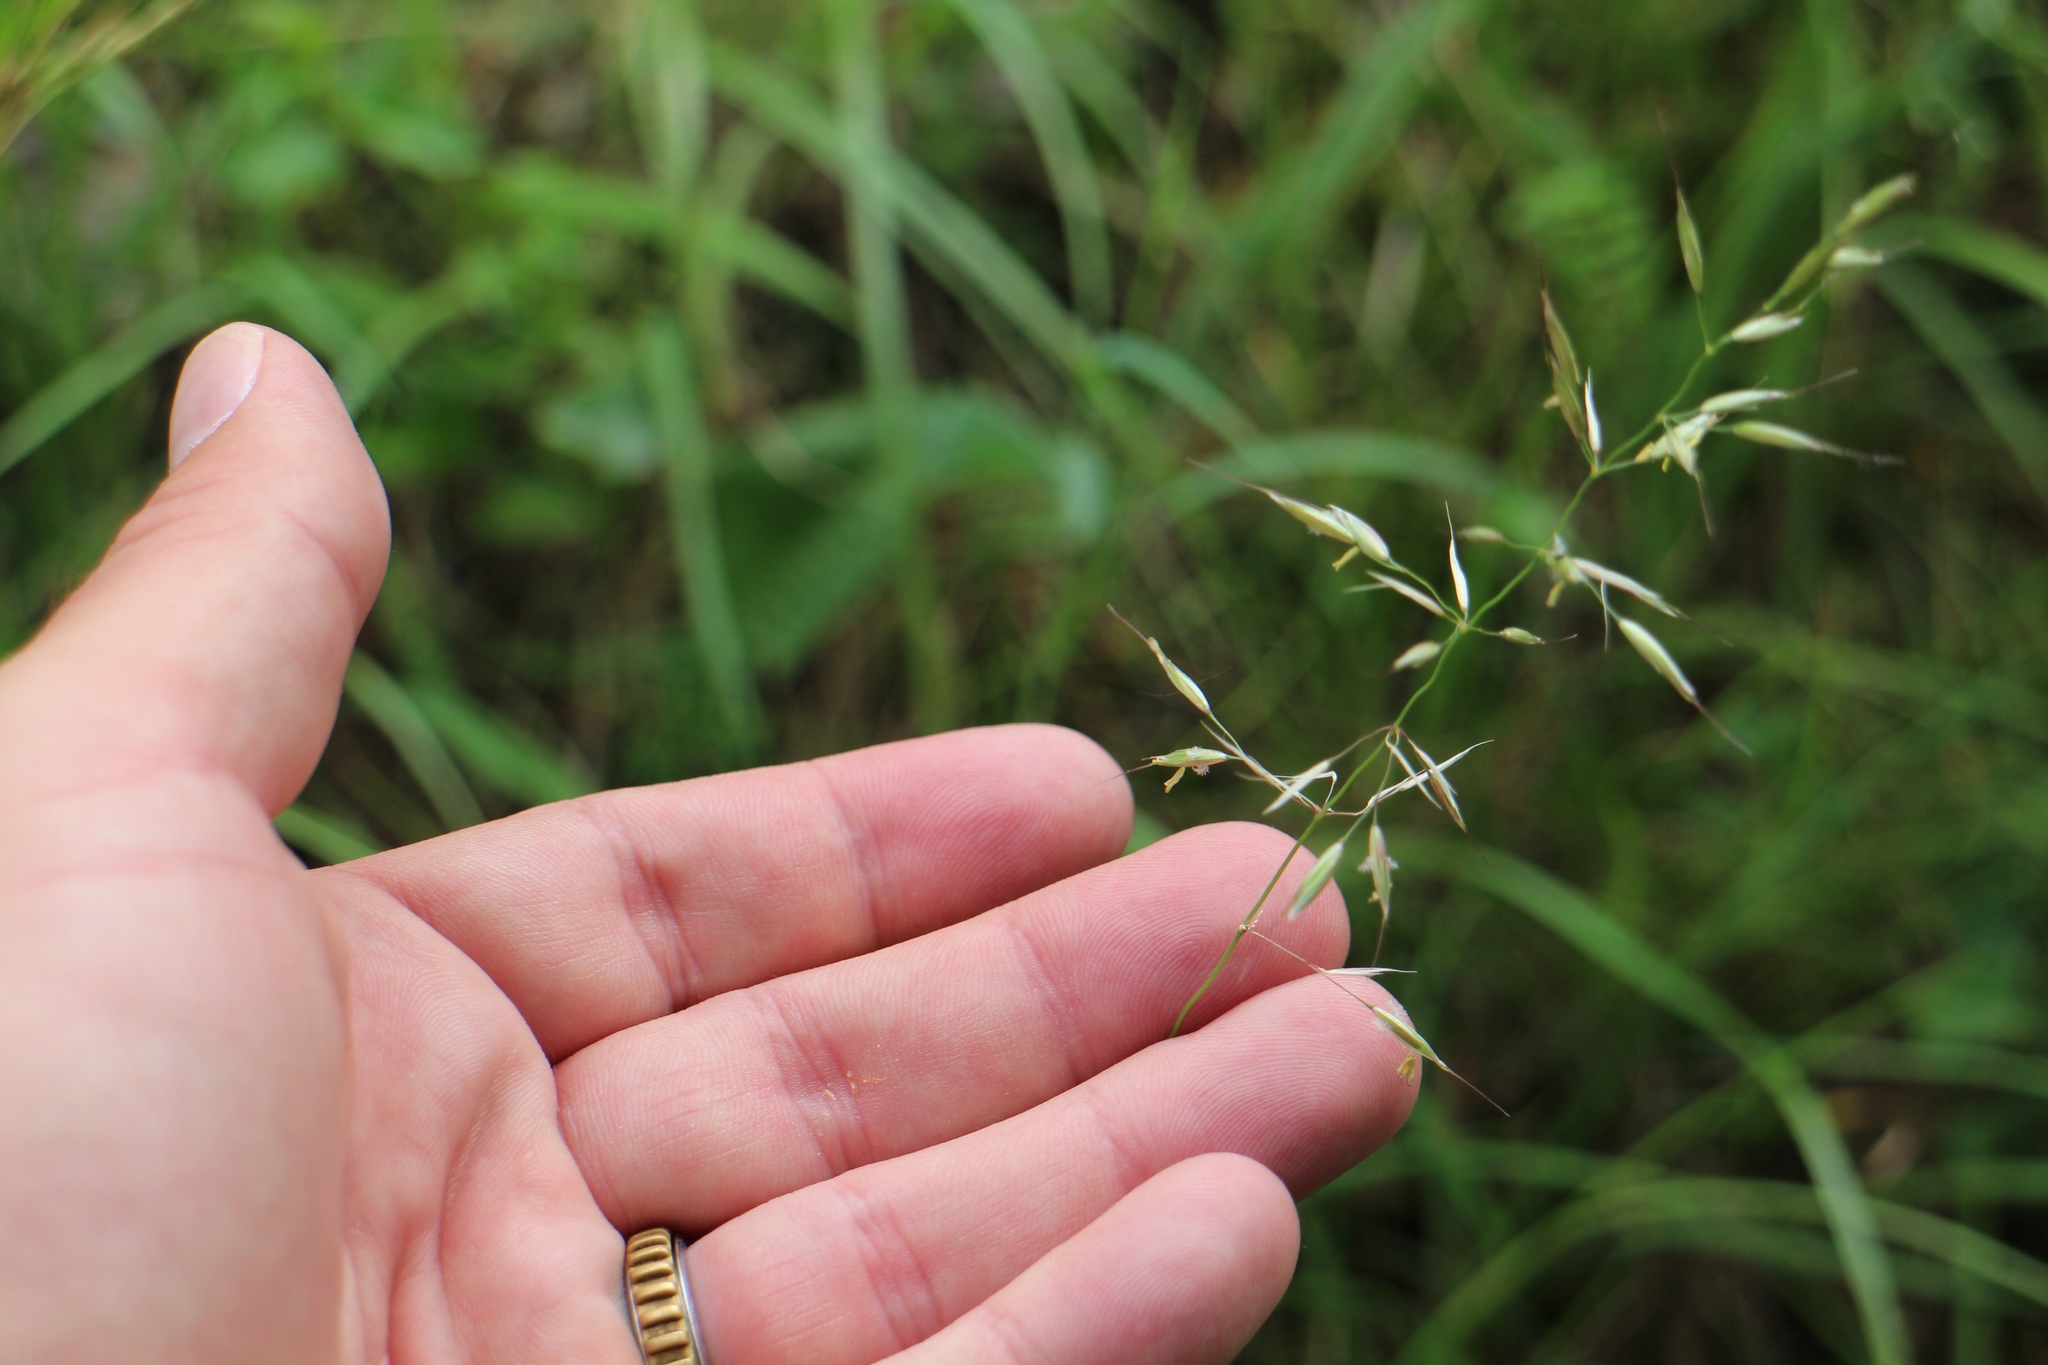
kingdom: Plantae
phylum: Tracheophyta
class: Liliopsida
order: Poales
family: Poaceae
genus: Arrhenatherum
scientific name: Arrhenatherum elatius
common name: Tall oatgrass
